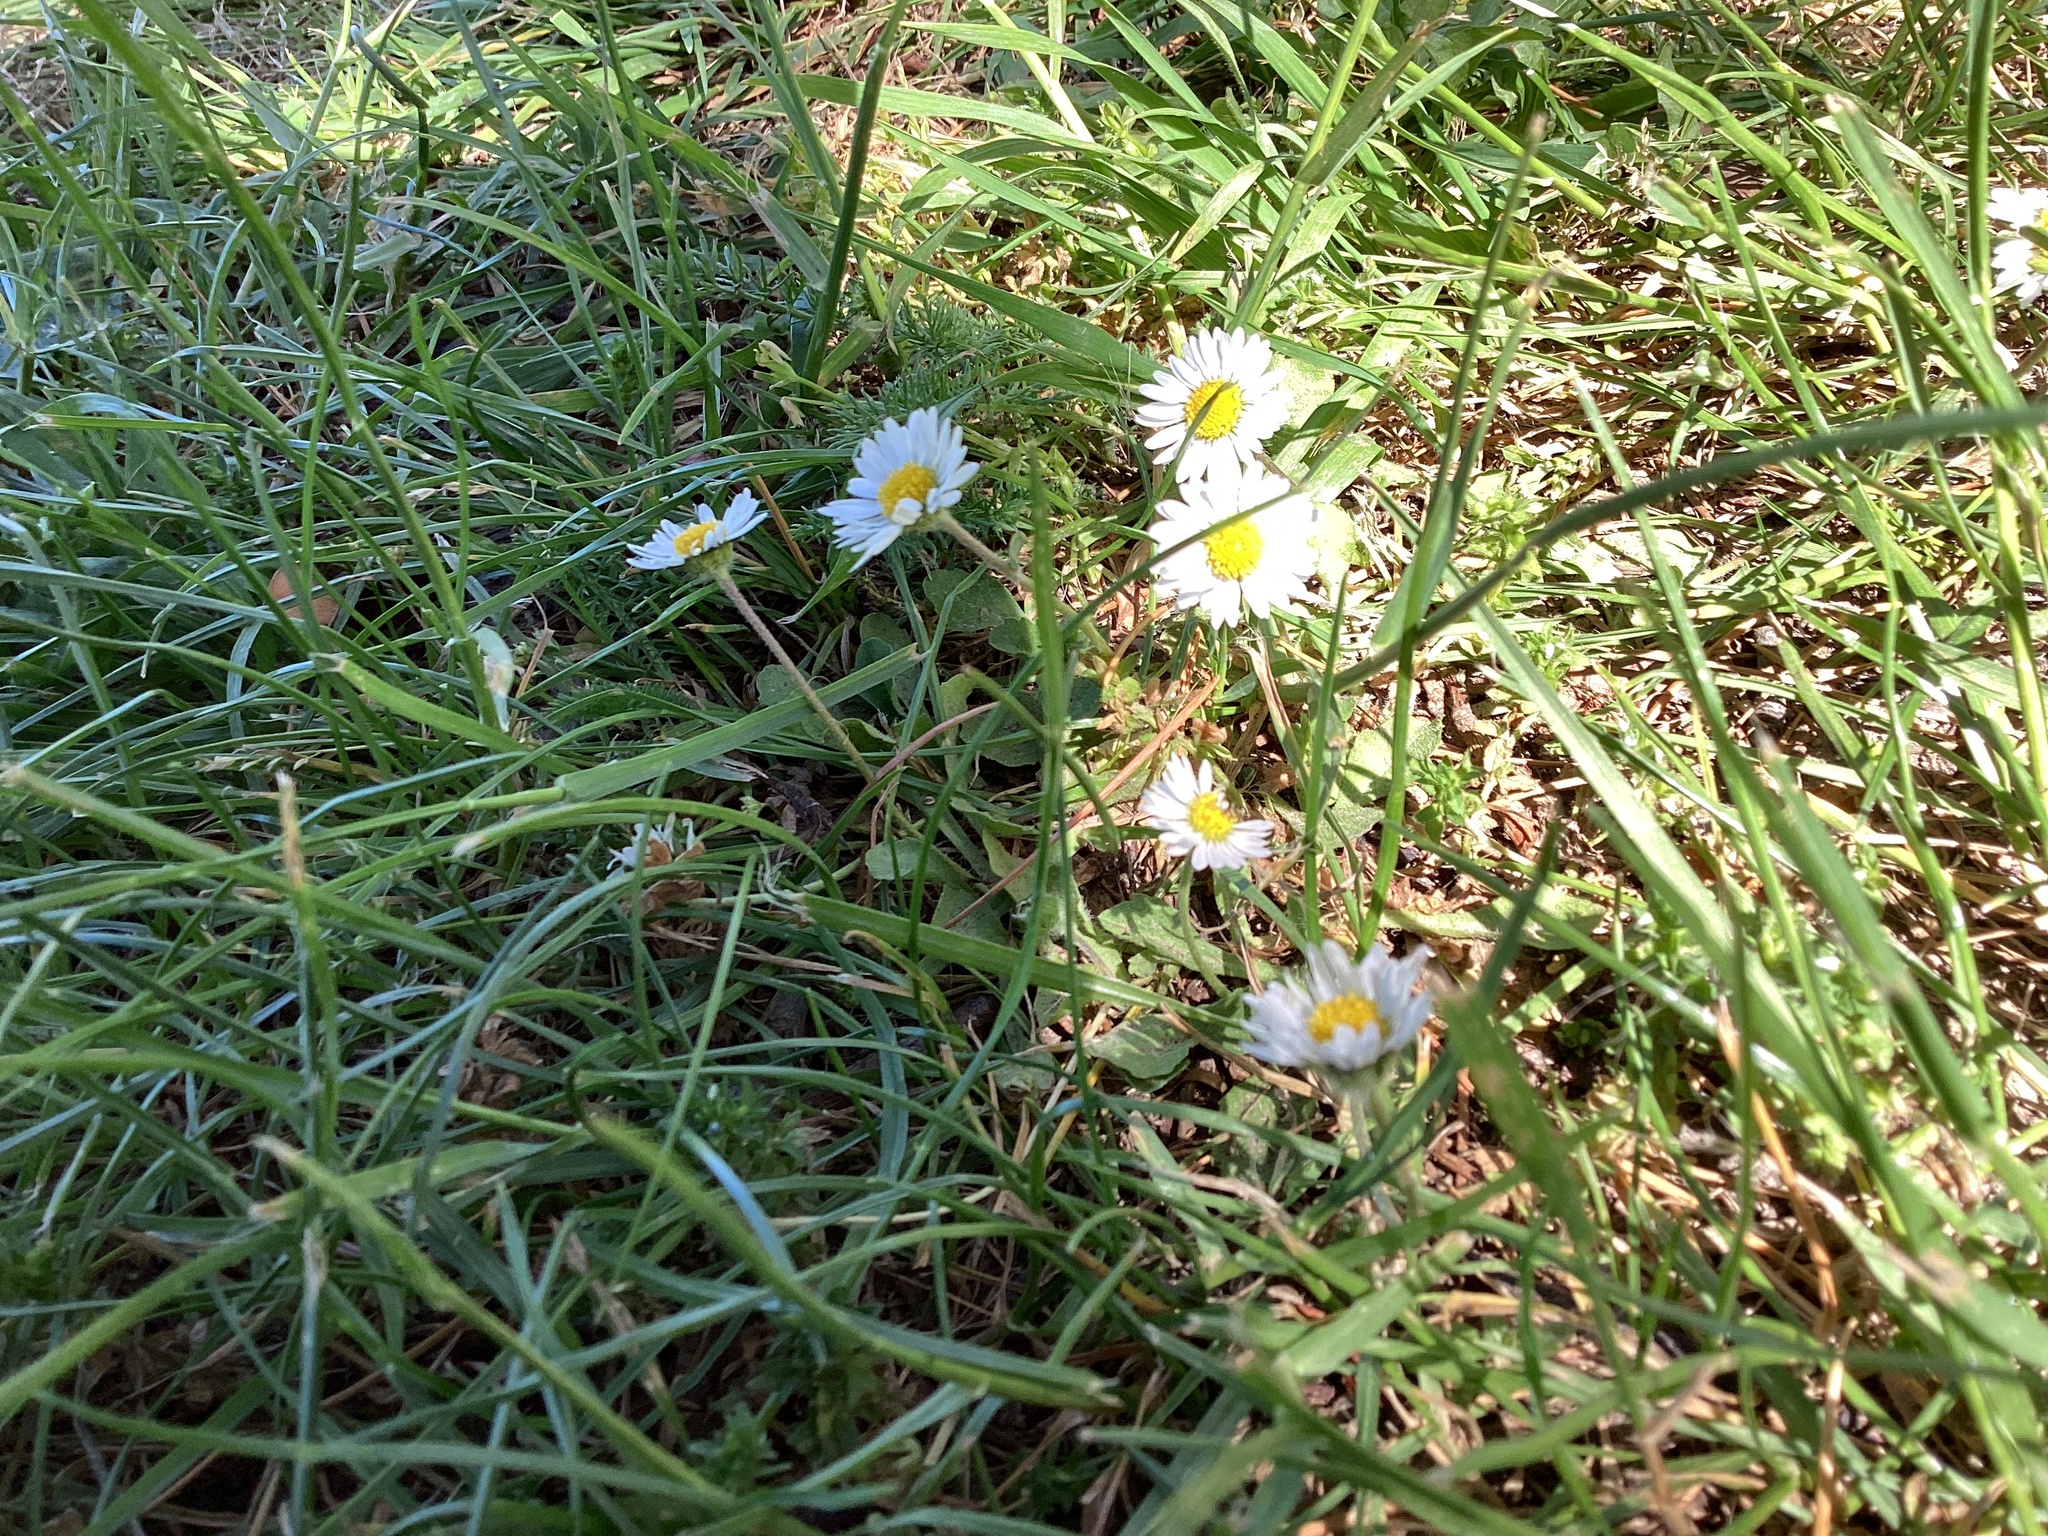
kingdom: Plantae
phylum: Tracheophyta
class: Magnoliopsida
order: Asterales
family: Asteraceae
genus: Bellis
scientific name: Bellis perennis
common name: Lawndaisy
